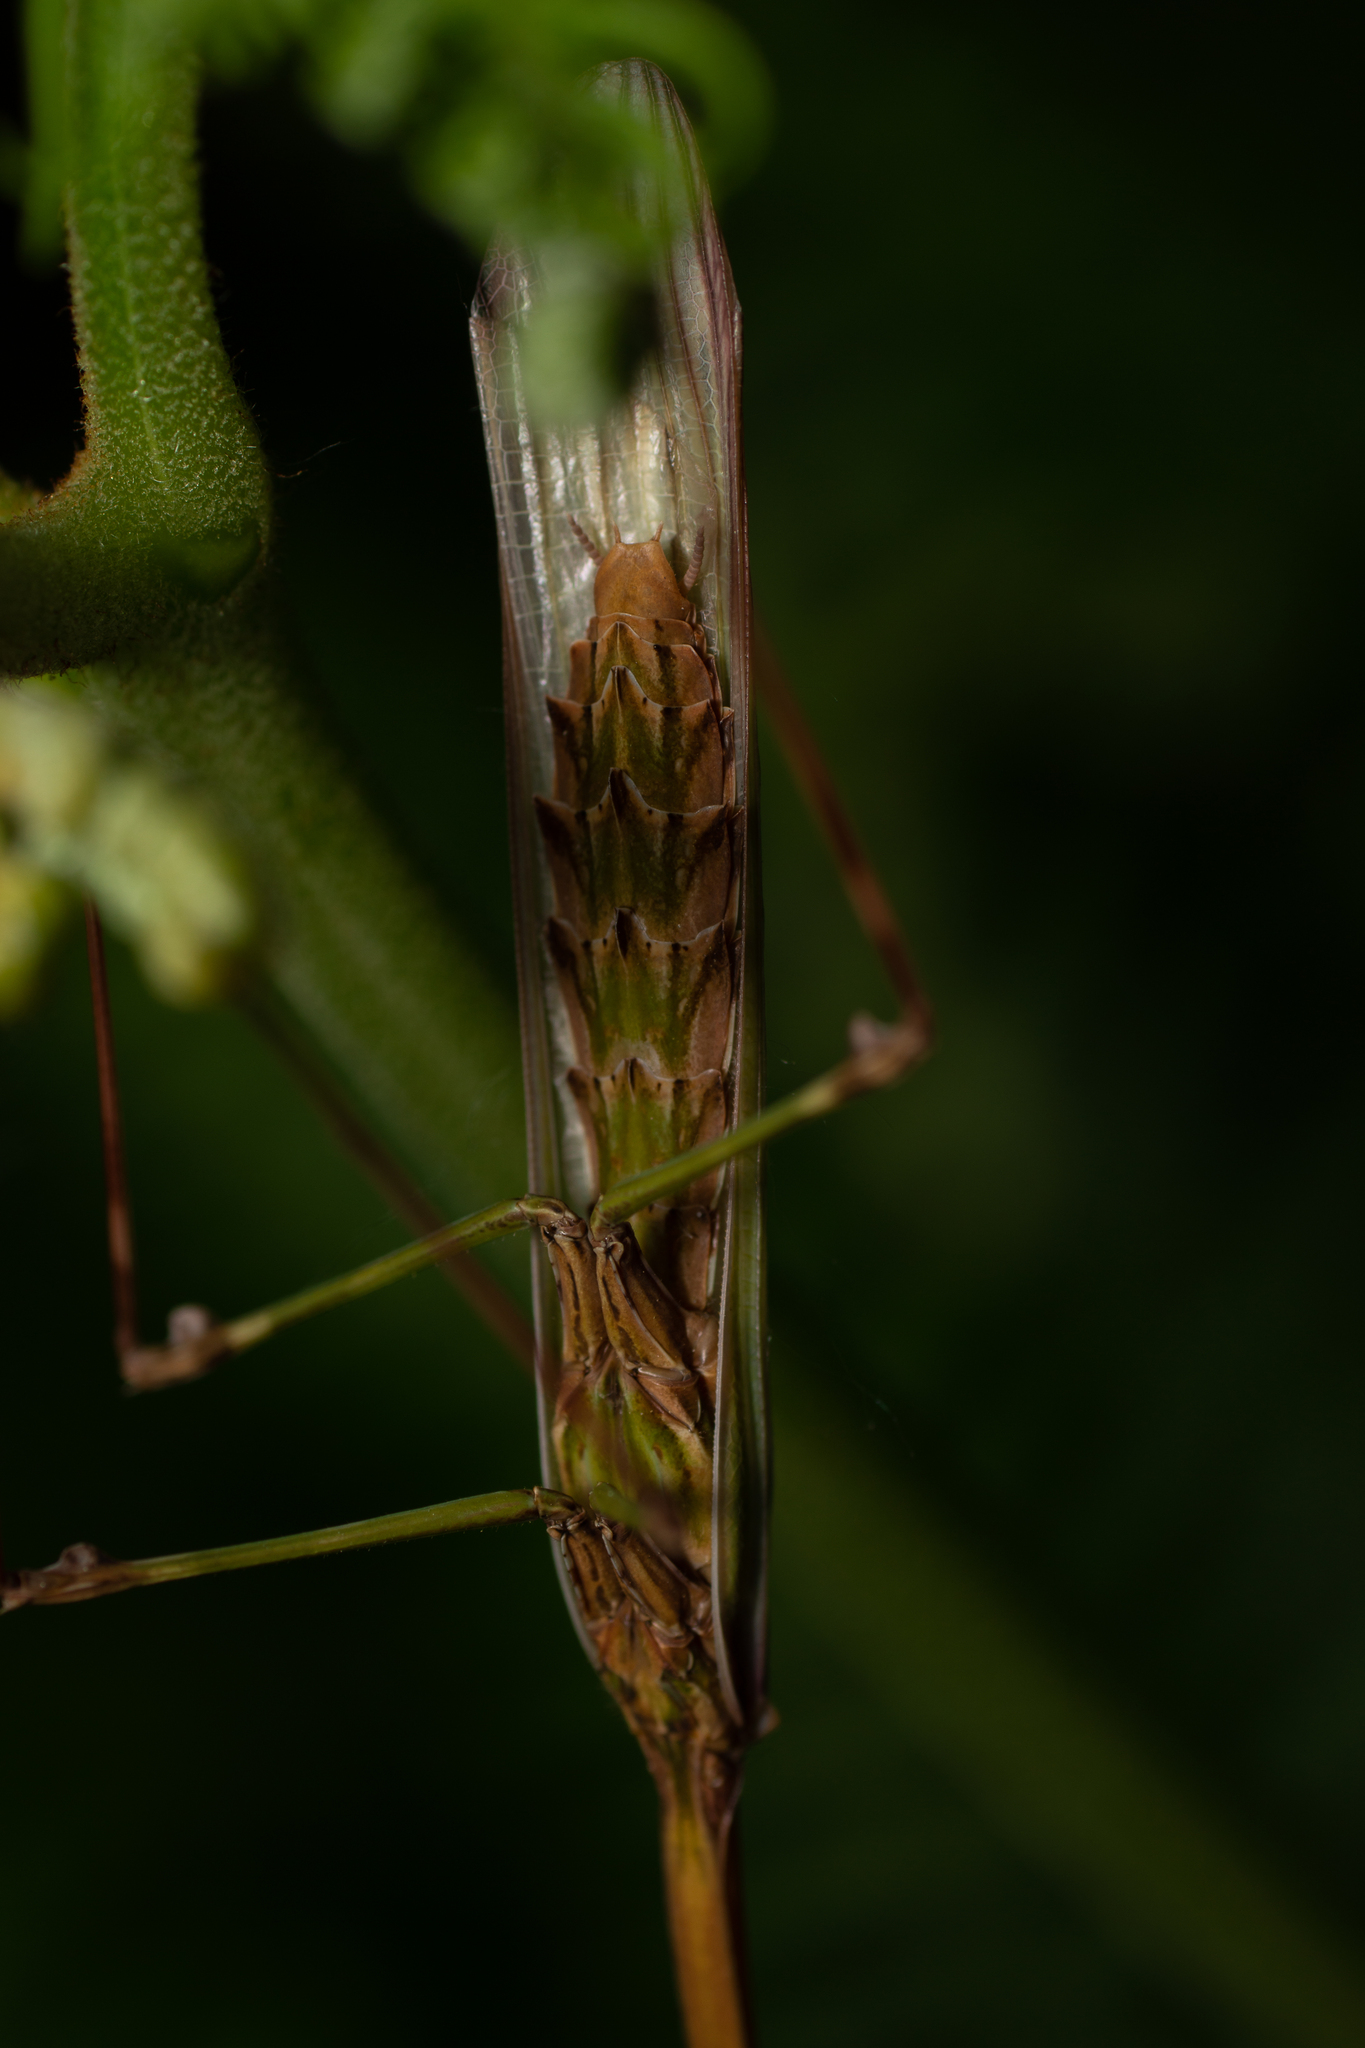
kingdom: Animalia
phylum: Arthropoda
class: Insecta
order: Mantodea
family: Empusidae
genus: Empusa
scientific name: Empusa pennata
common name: Conehead mantis
